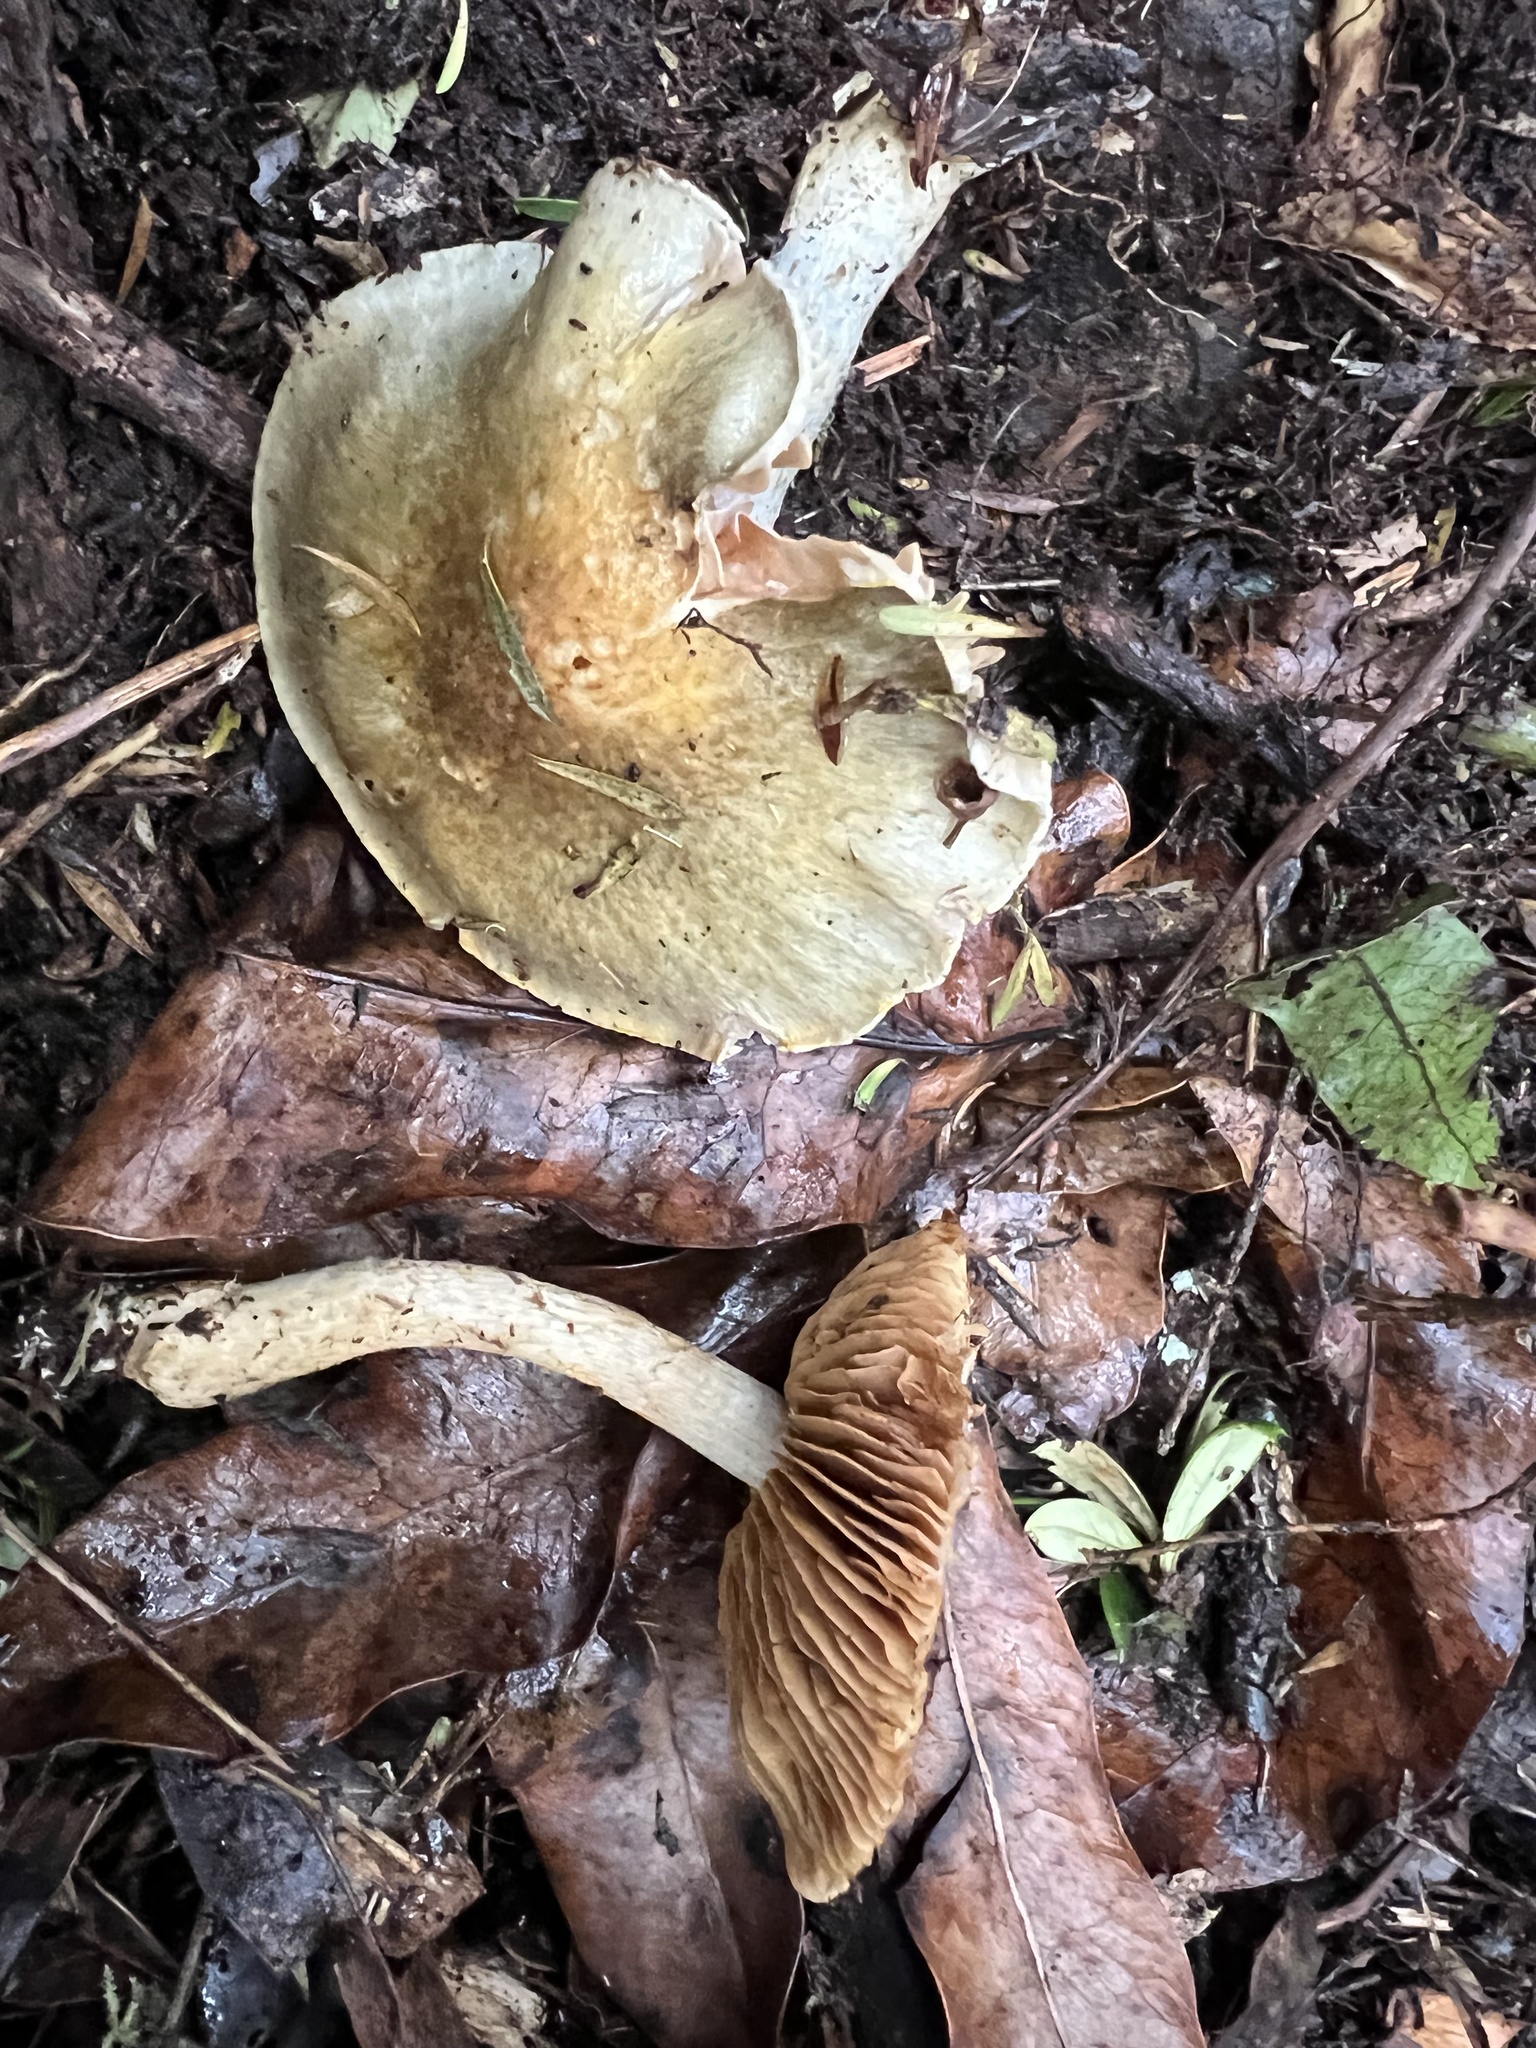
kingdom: Fungi
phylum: Basidiomycota
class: Agaricomycetes
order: Agaricales
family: Cortinariaceae
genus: Cortinarius
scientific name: Cortinarius calaisopus
